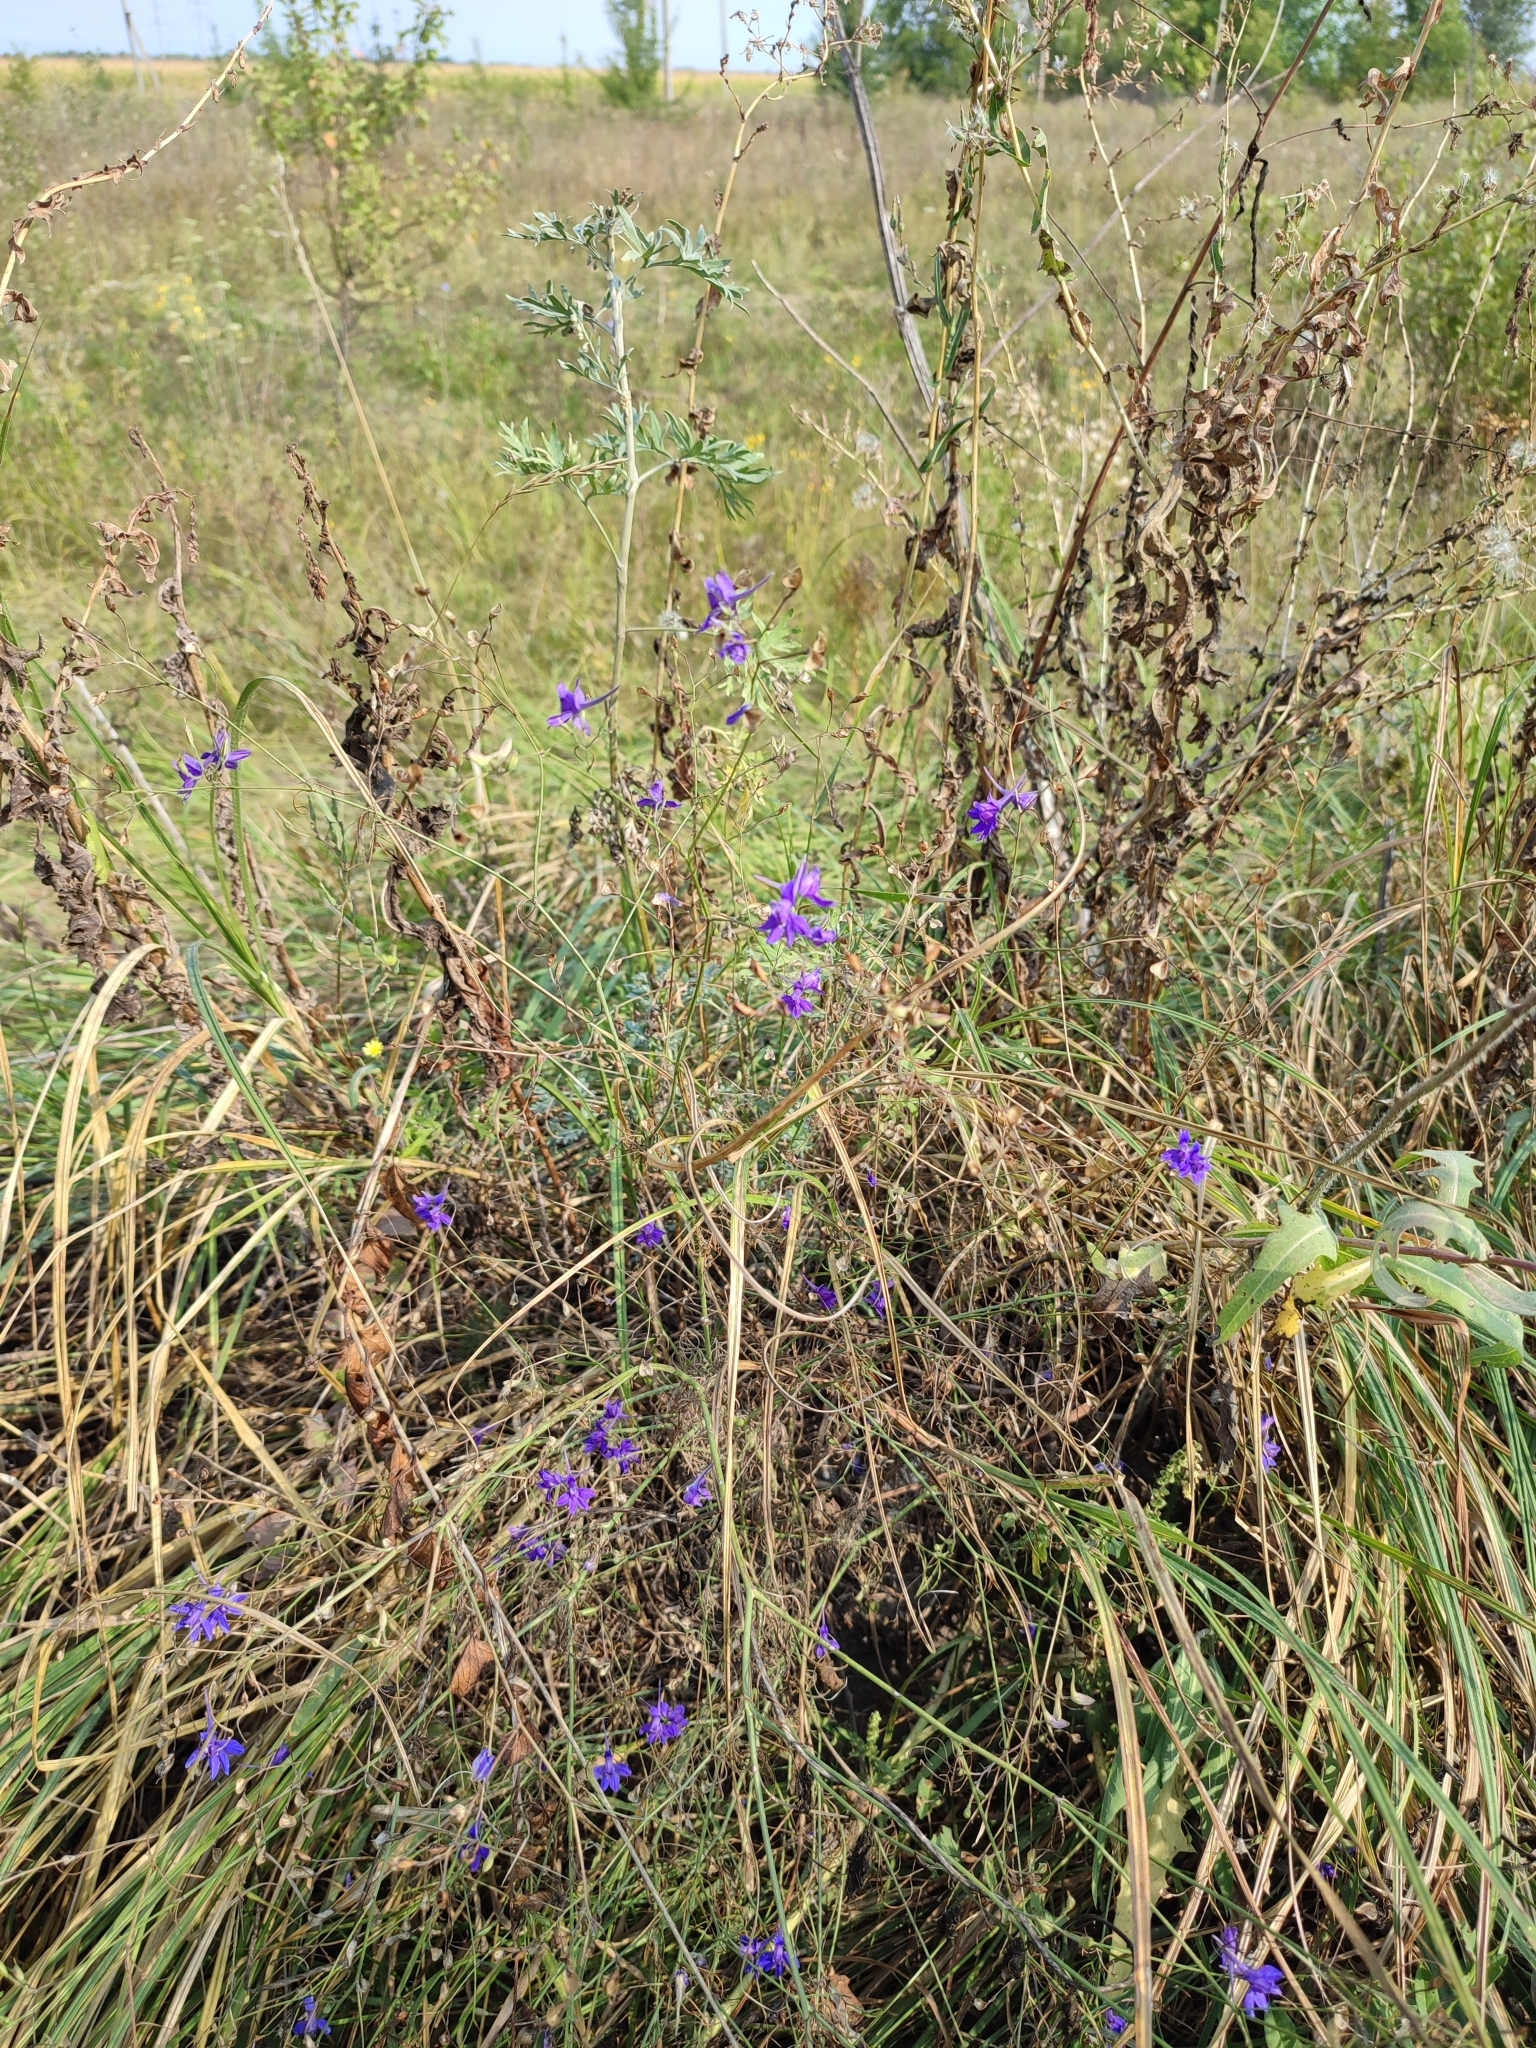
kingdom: Plantae
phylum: Tracheophyta
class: Magnoliopsida
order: Ranunculales
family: Ranunculaceae
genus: Delphinium
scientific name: Delphinium consolida
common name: Branching larkspur
